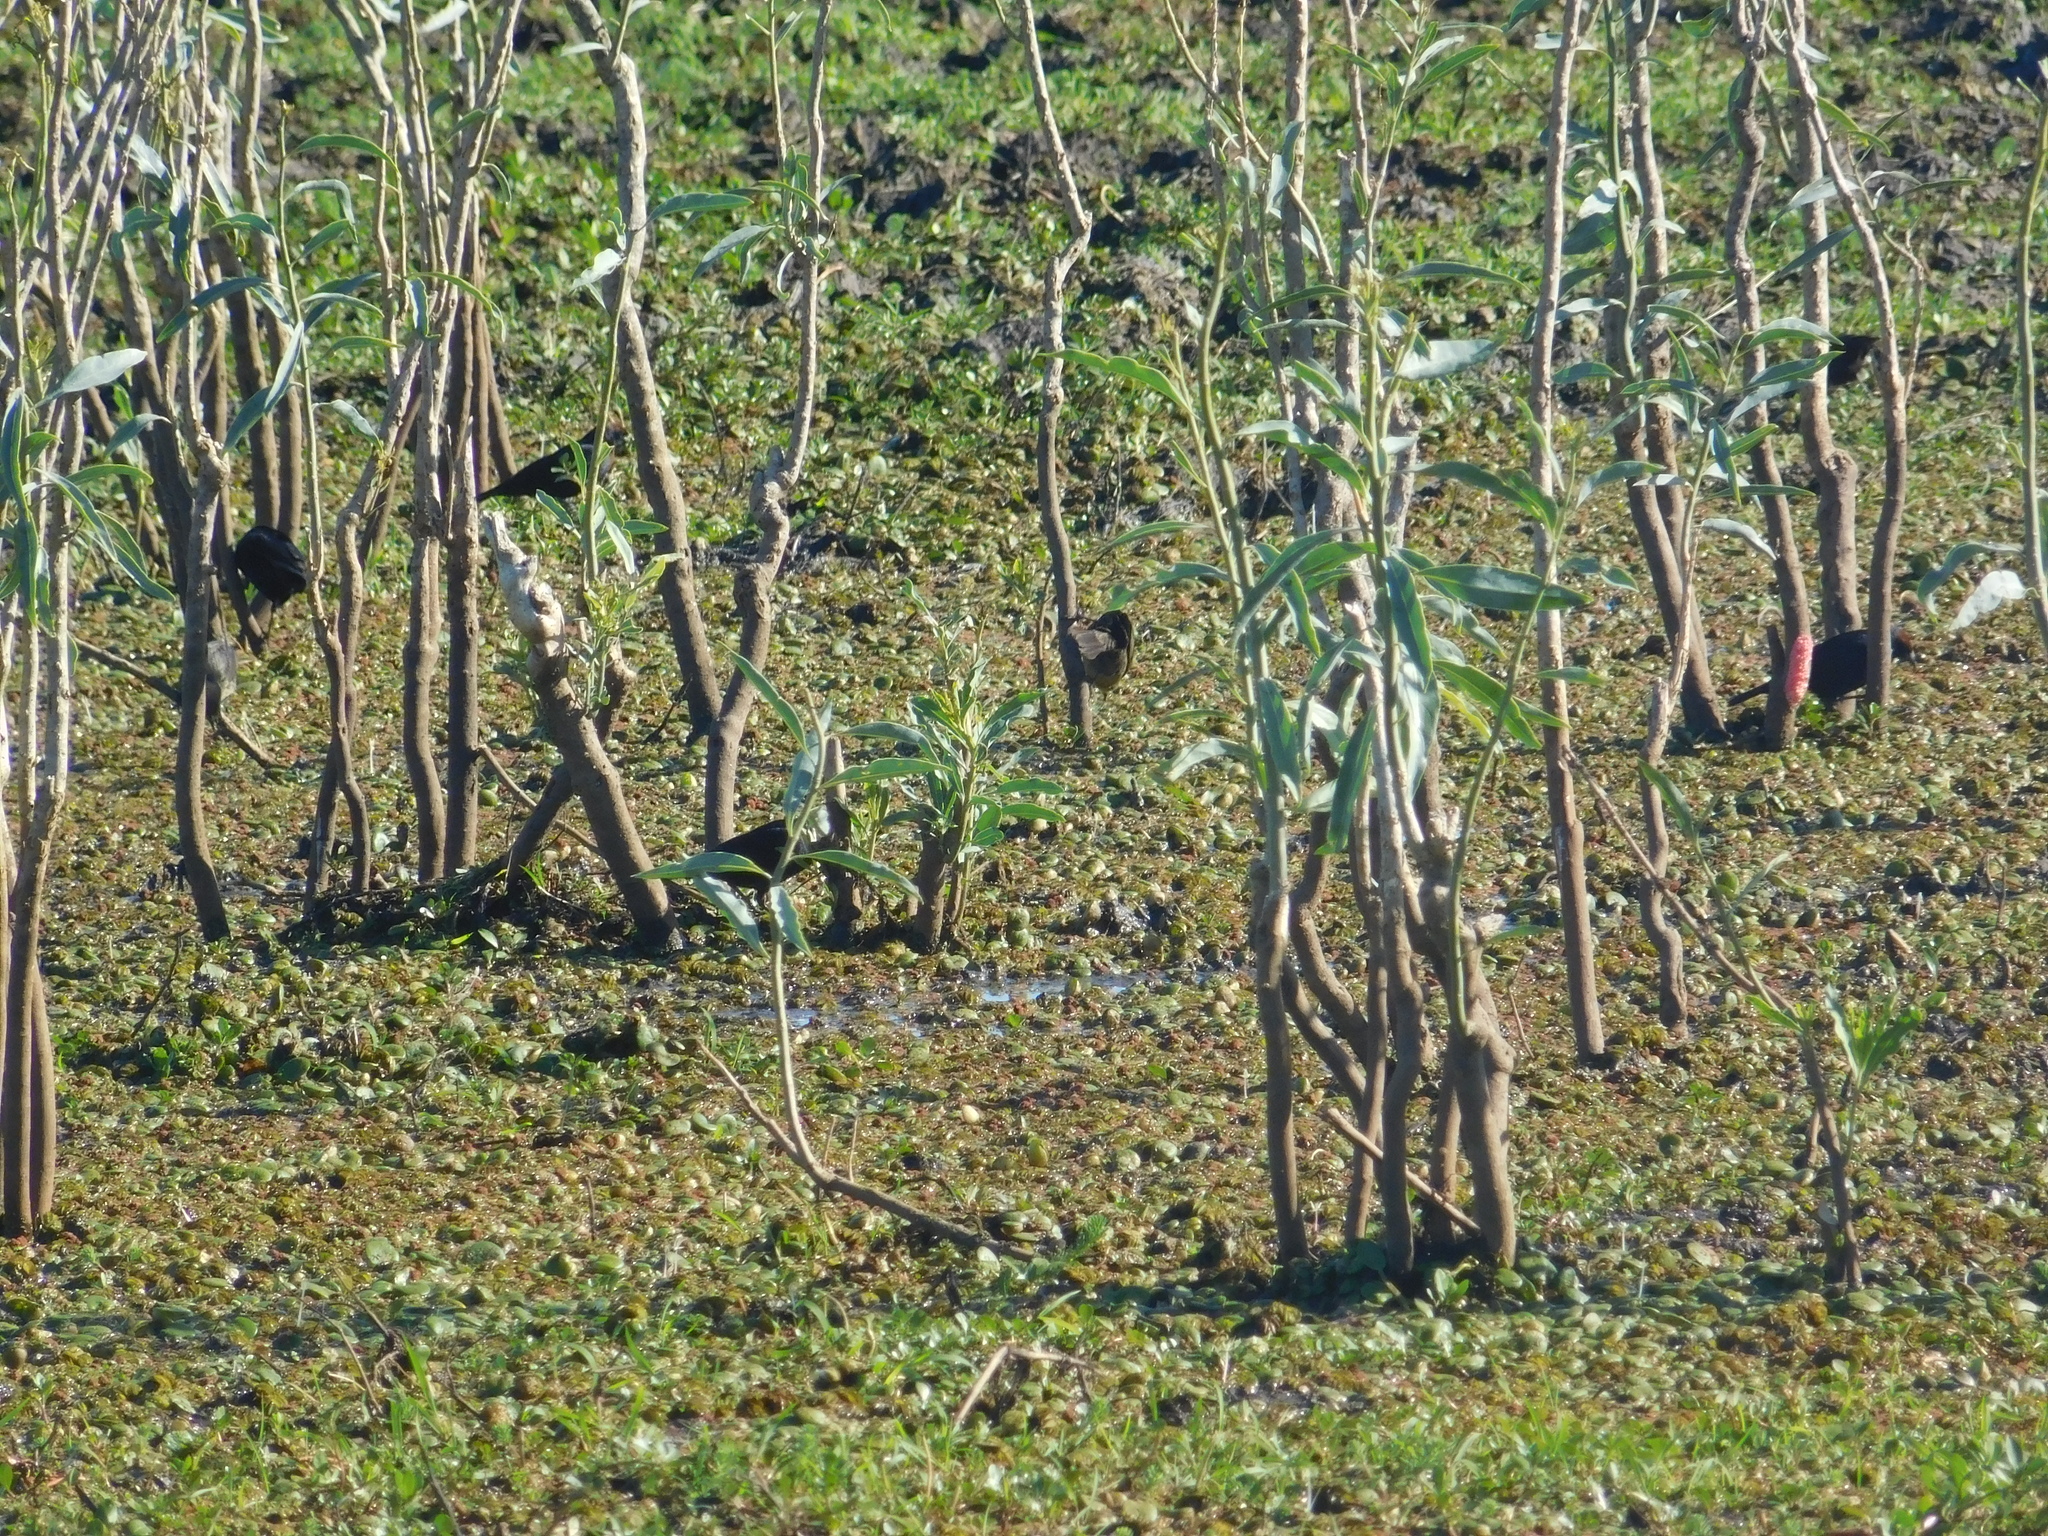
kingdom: Animalia
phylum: Chordata
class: Aves
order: Passeriformes
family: Icteridae
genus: Chrysomus
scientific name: Chrysomus ruficapillus
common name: Chestnut-capped blackbird
